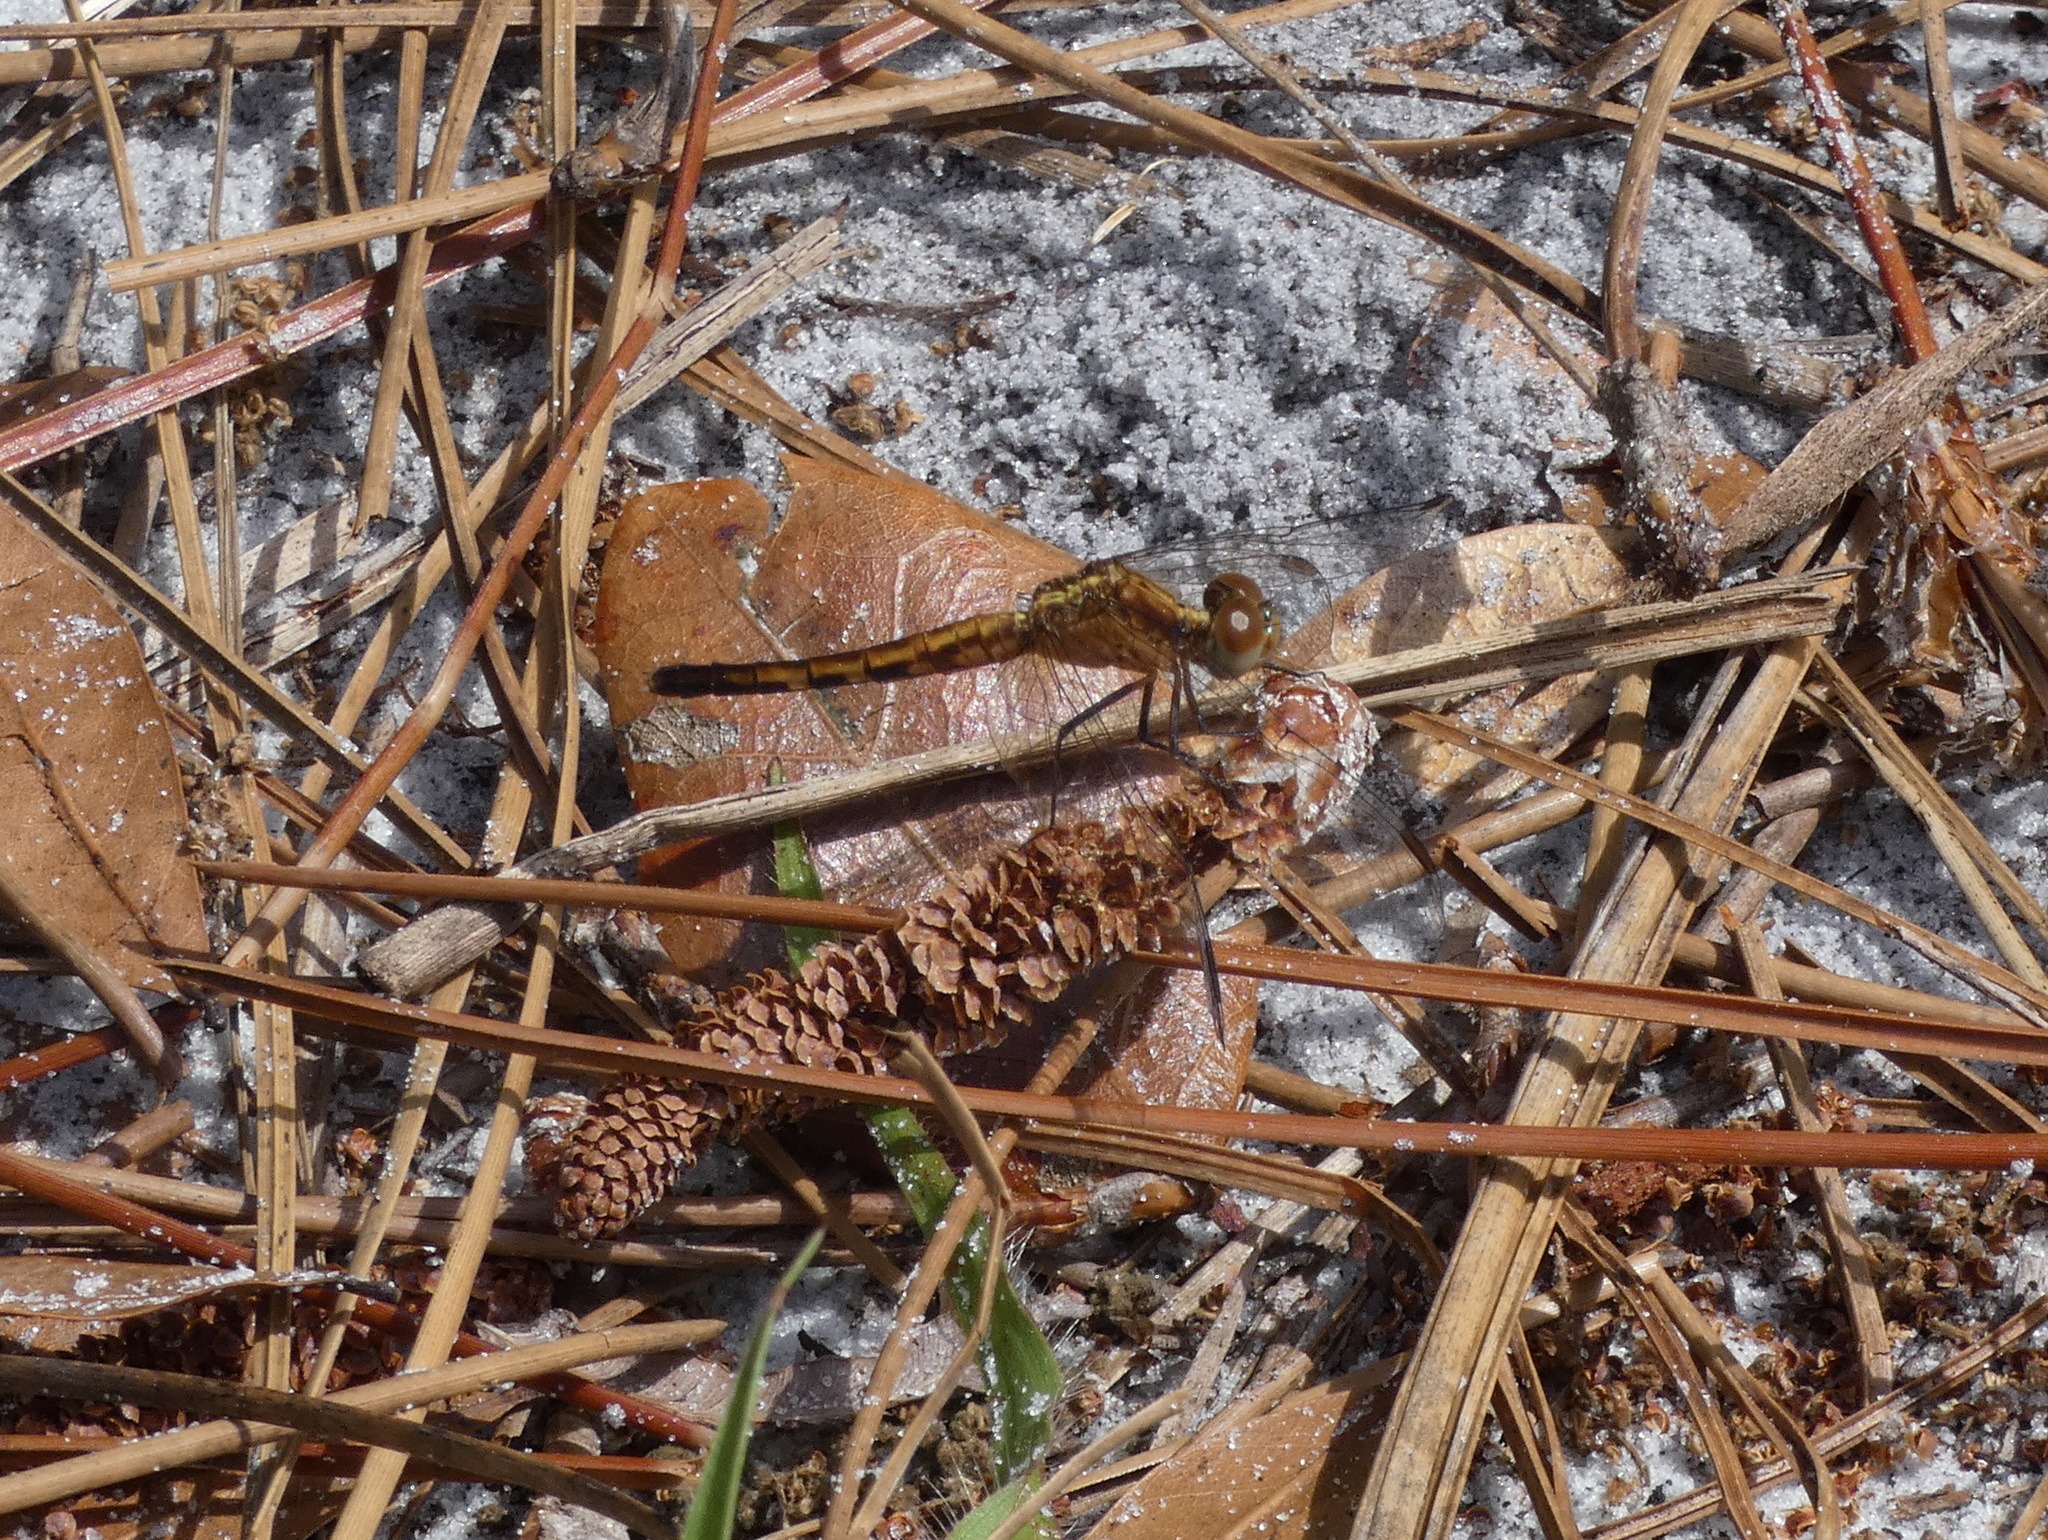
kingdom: Animalia
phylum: Arthropoda
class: Insecta
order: Odonata
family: Libellulidae
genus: Erythrodiplax
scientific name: Erythrodiplax minuscula
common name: Little blue dragonlet
